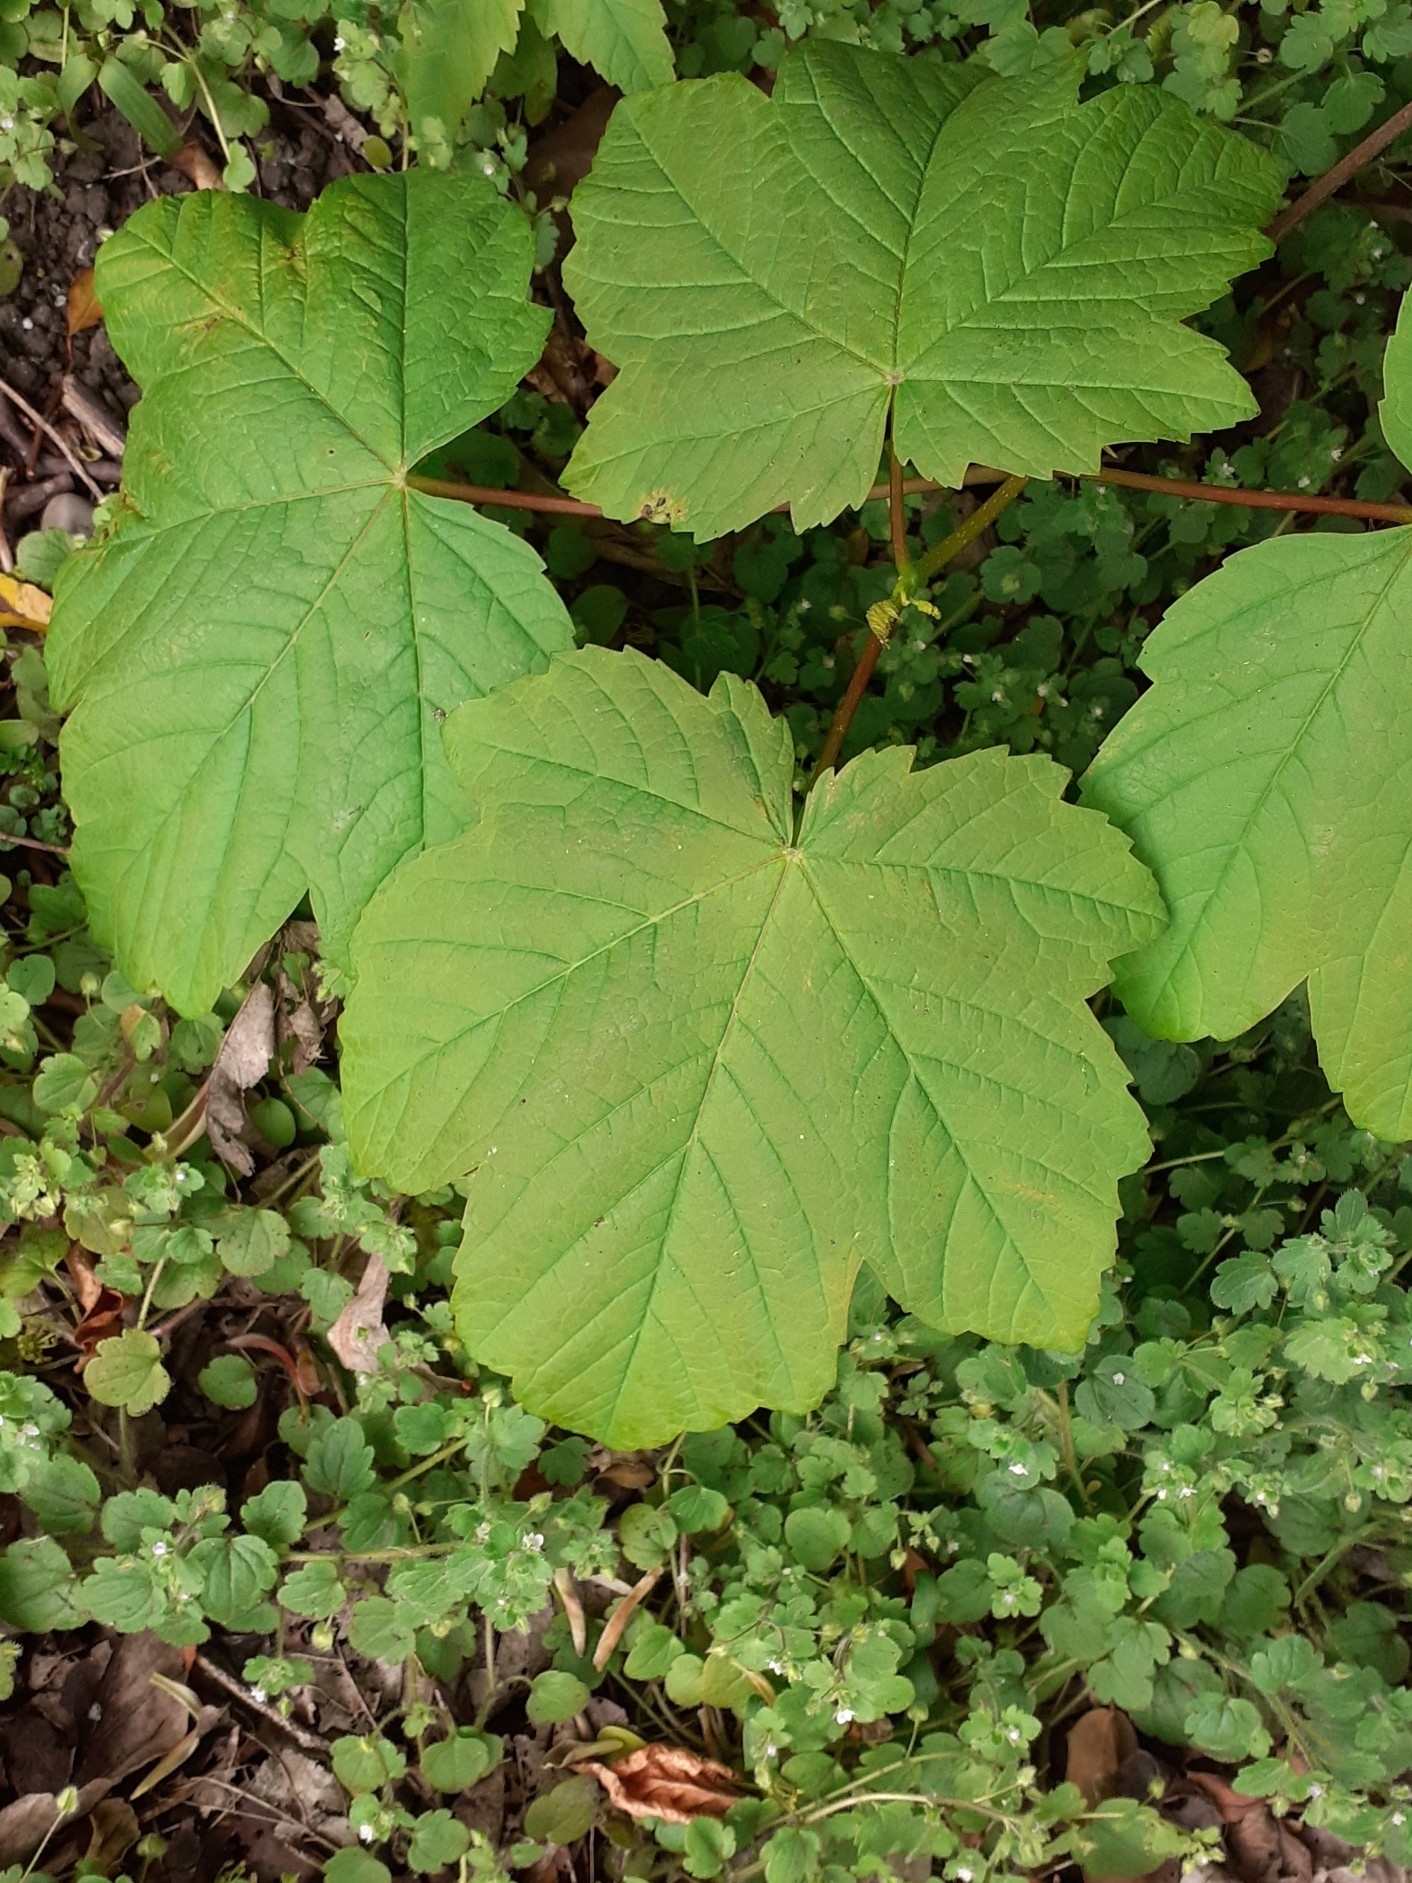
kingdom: Plantae
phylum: Tracheophyta
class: Magnoliopsida
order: Sapindales
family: Sapindaceae
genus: Acer
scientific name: Acer pseudoplatanus
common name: Sycamore
